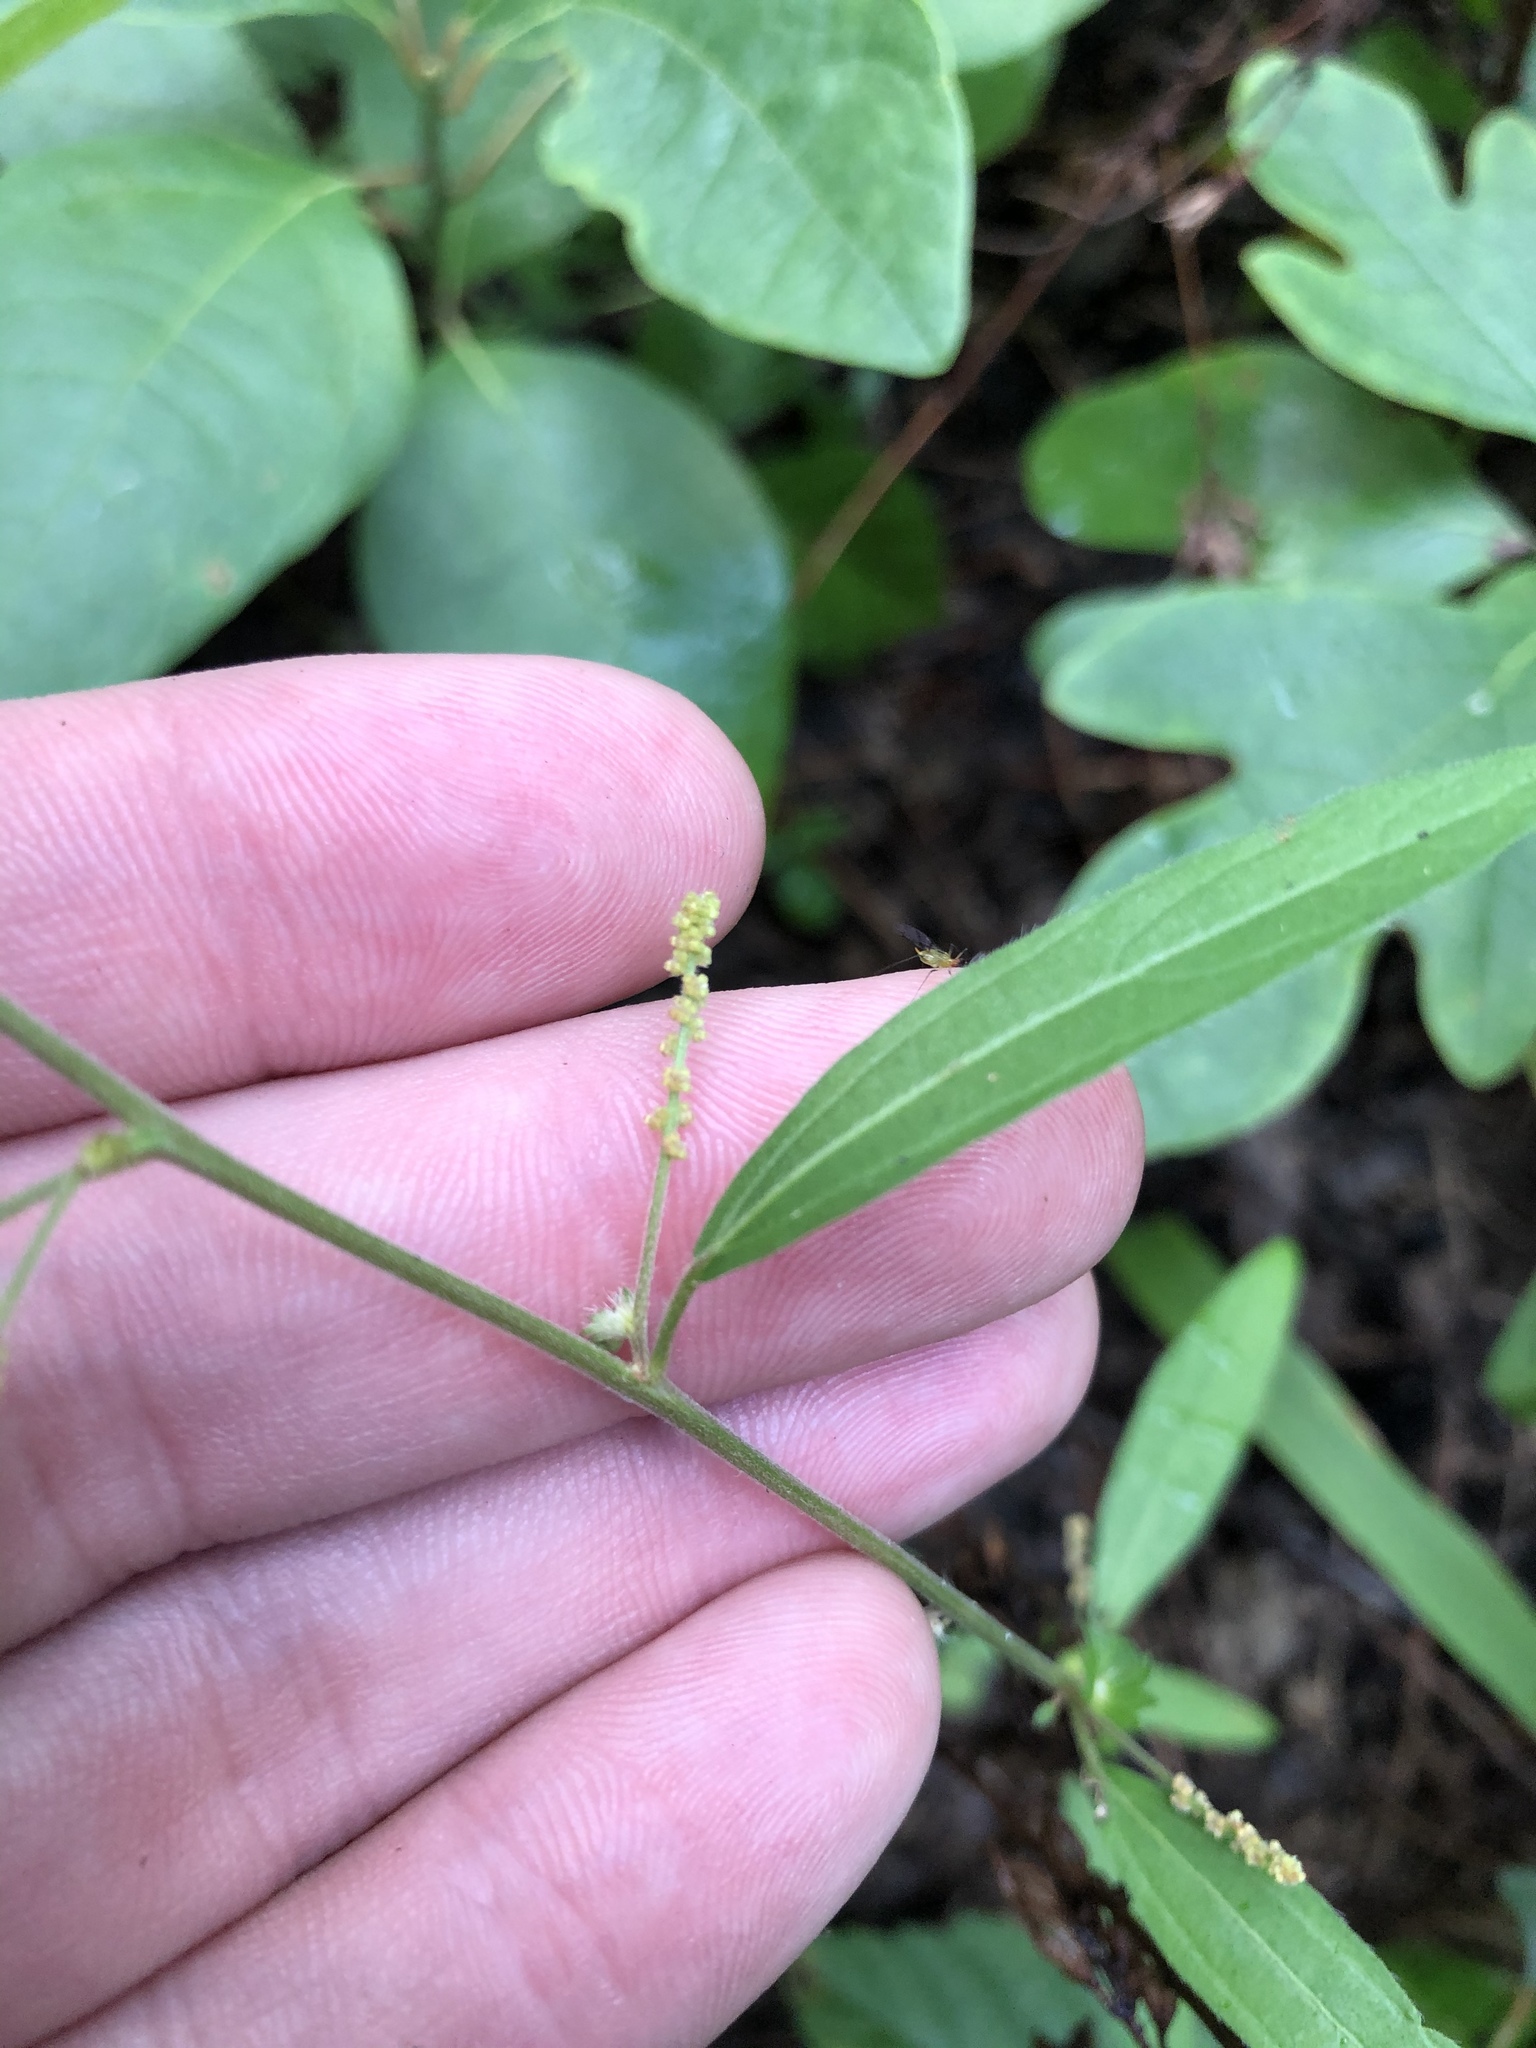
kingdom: Plantae
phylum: Tracheophyta
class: Magnoliopsida
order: Malpighiales
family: Euphorbiaceae
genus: Acalypha
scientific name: Acalypha gracilens
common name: Slender three-seeded mercury
